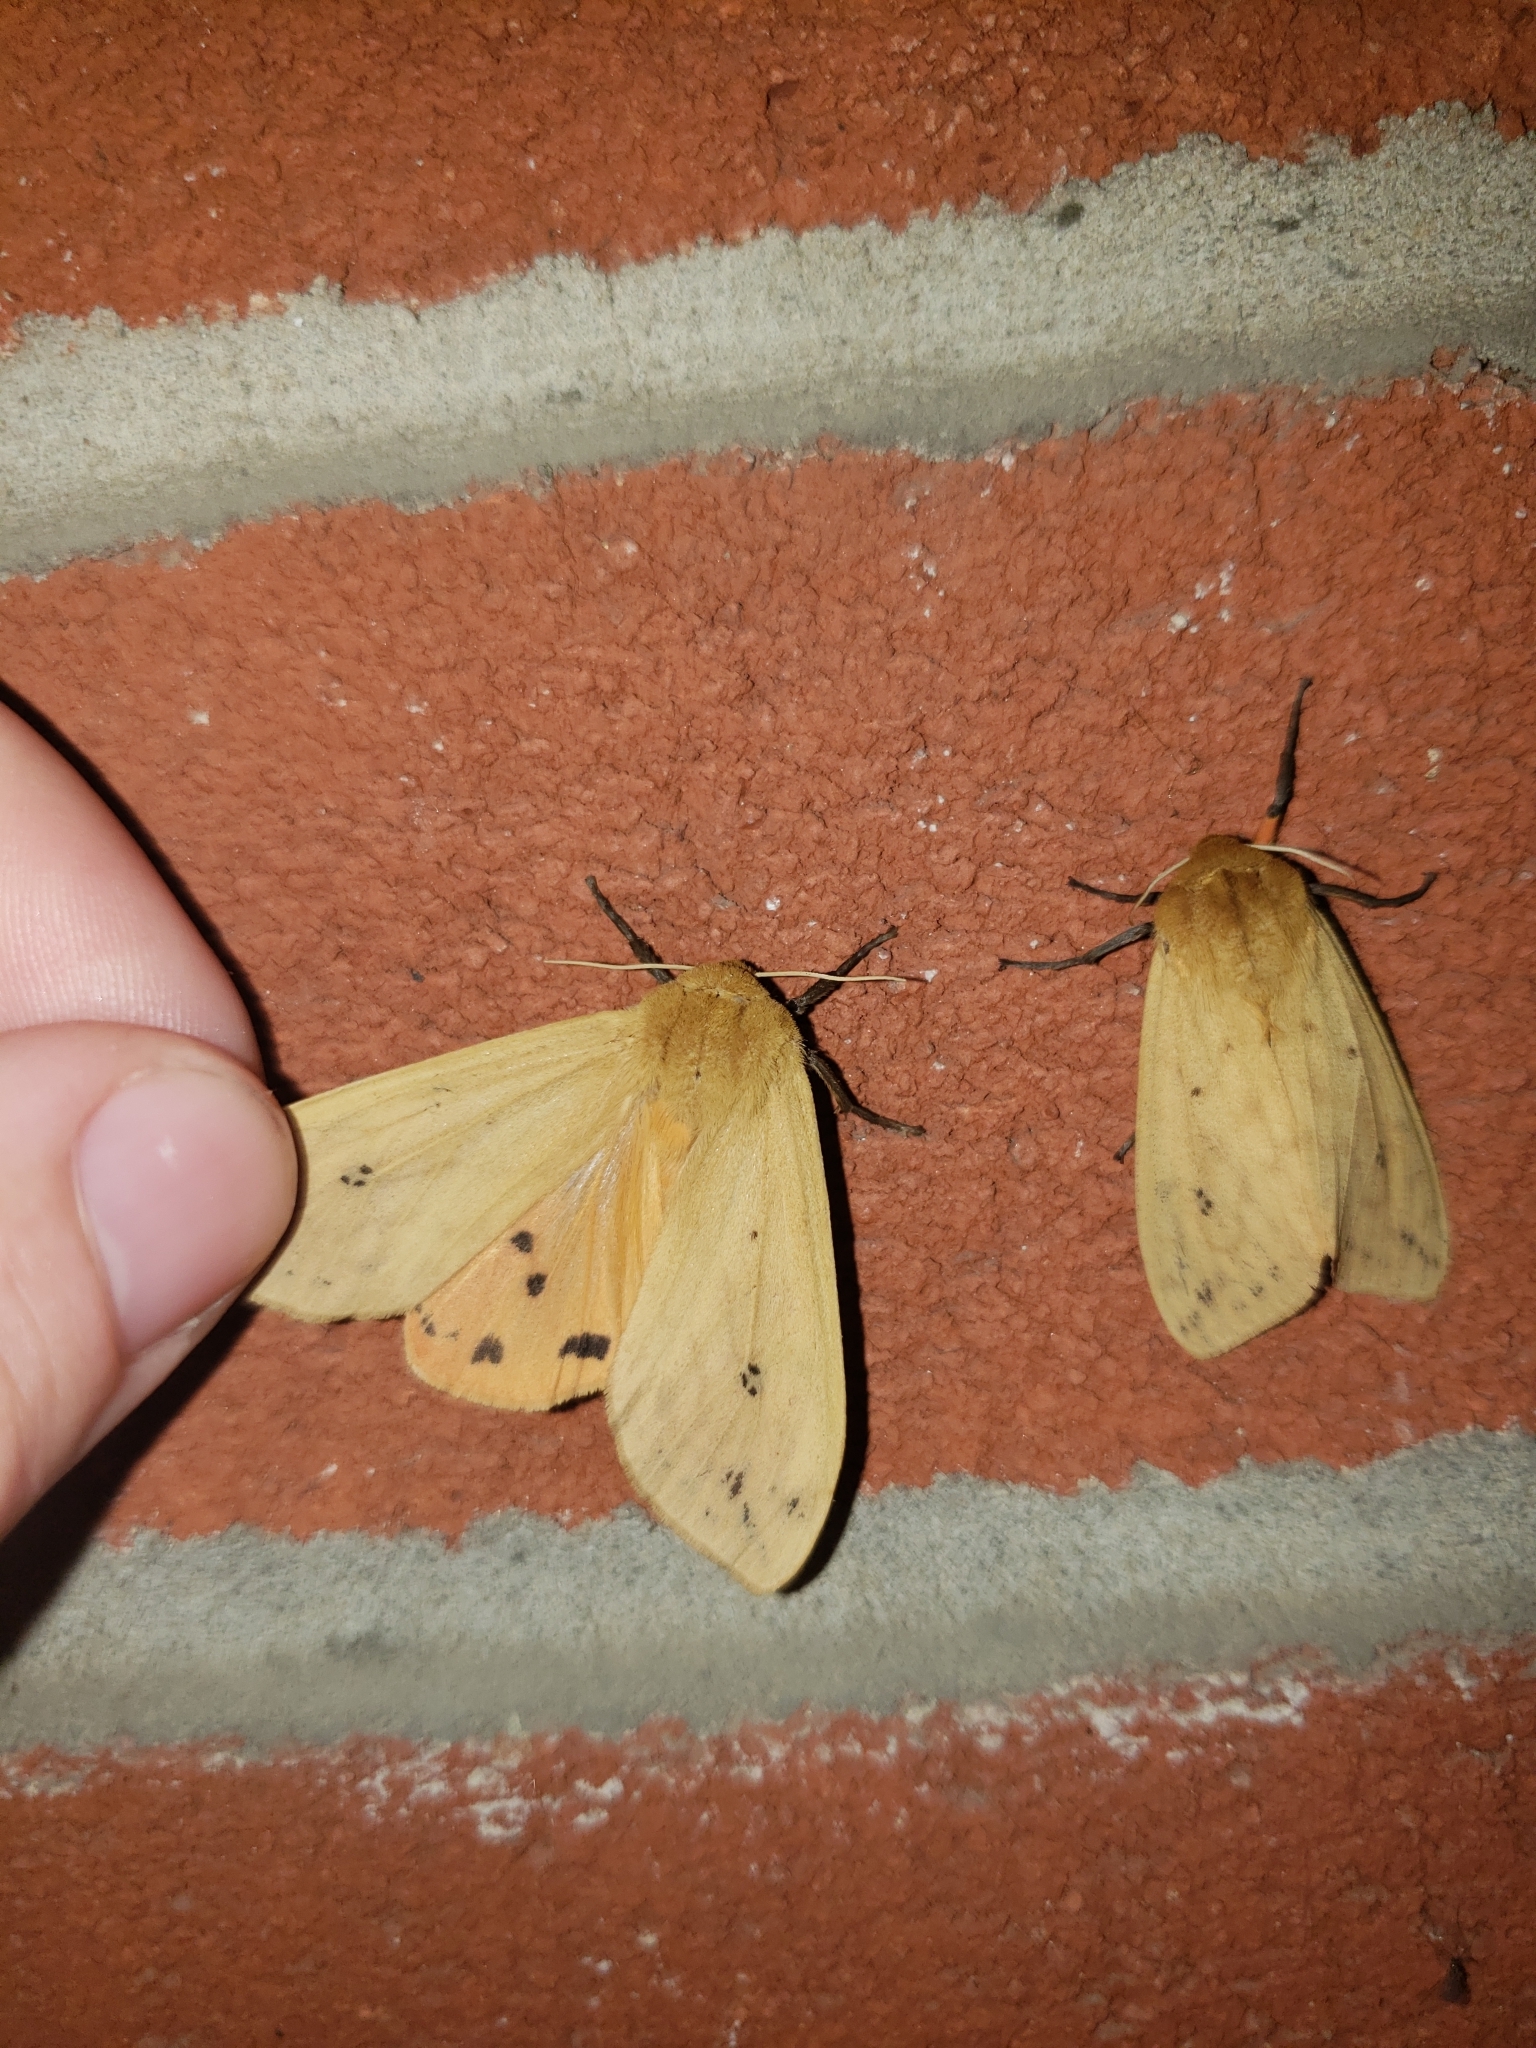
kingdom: Animalia
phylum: Arthropoda
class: Insecta
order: Lepidoptera
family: Erebidae
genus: Pyrrharctia
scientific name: Pyrrharctia isabella
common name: Isabella tiger moth
